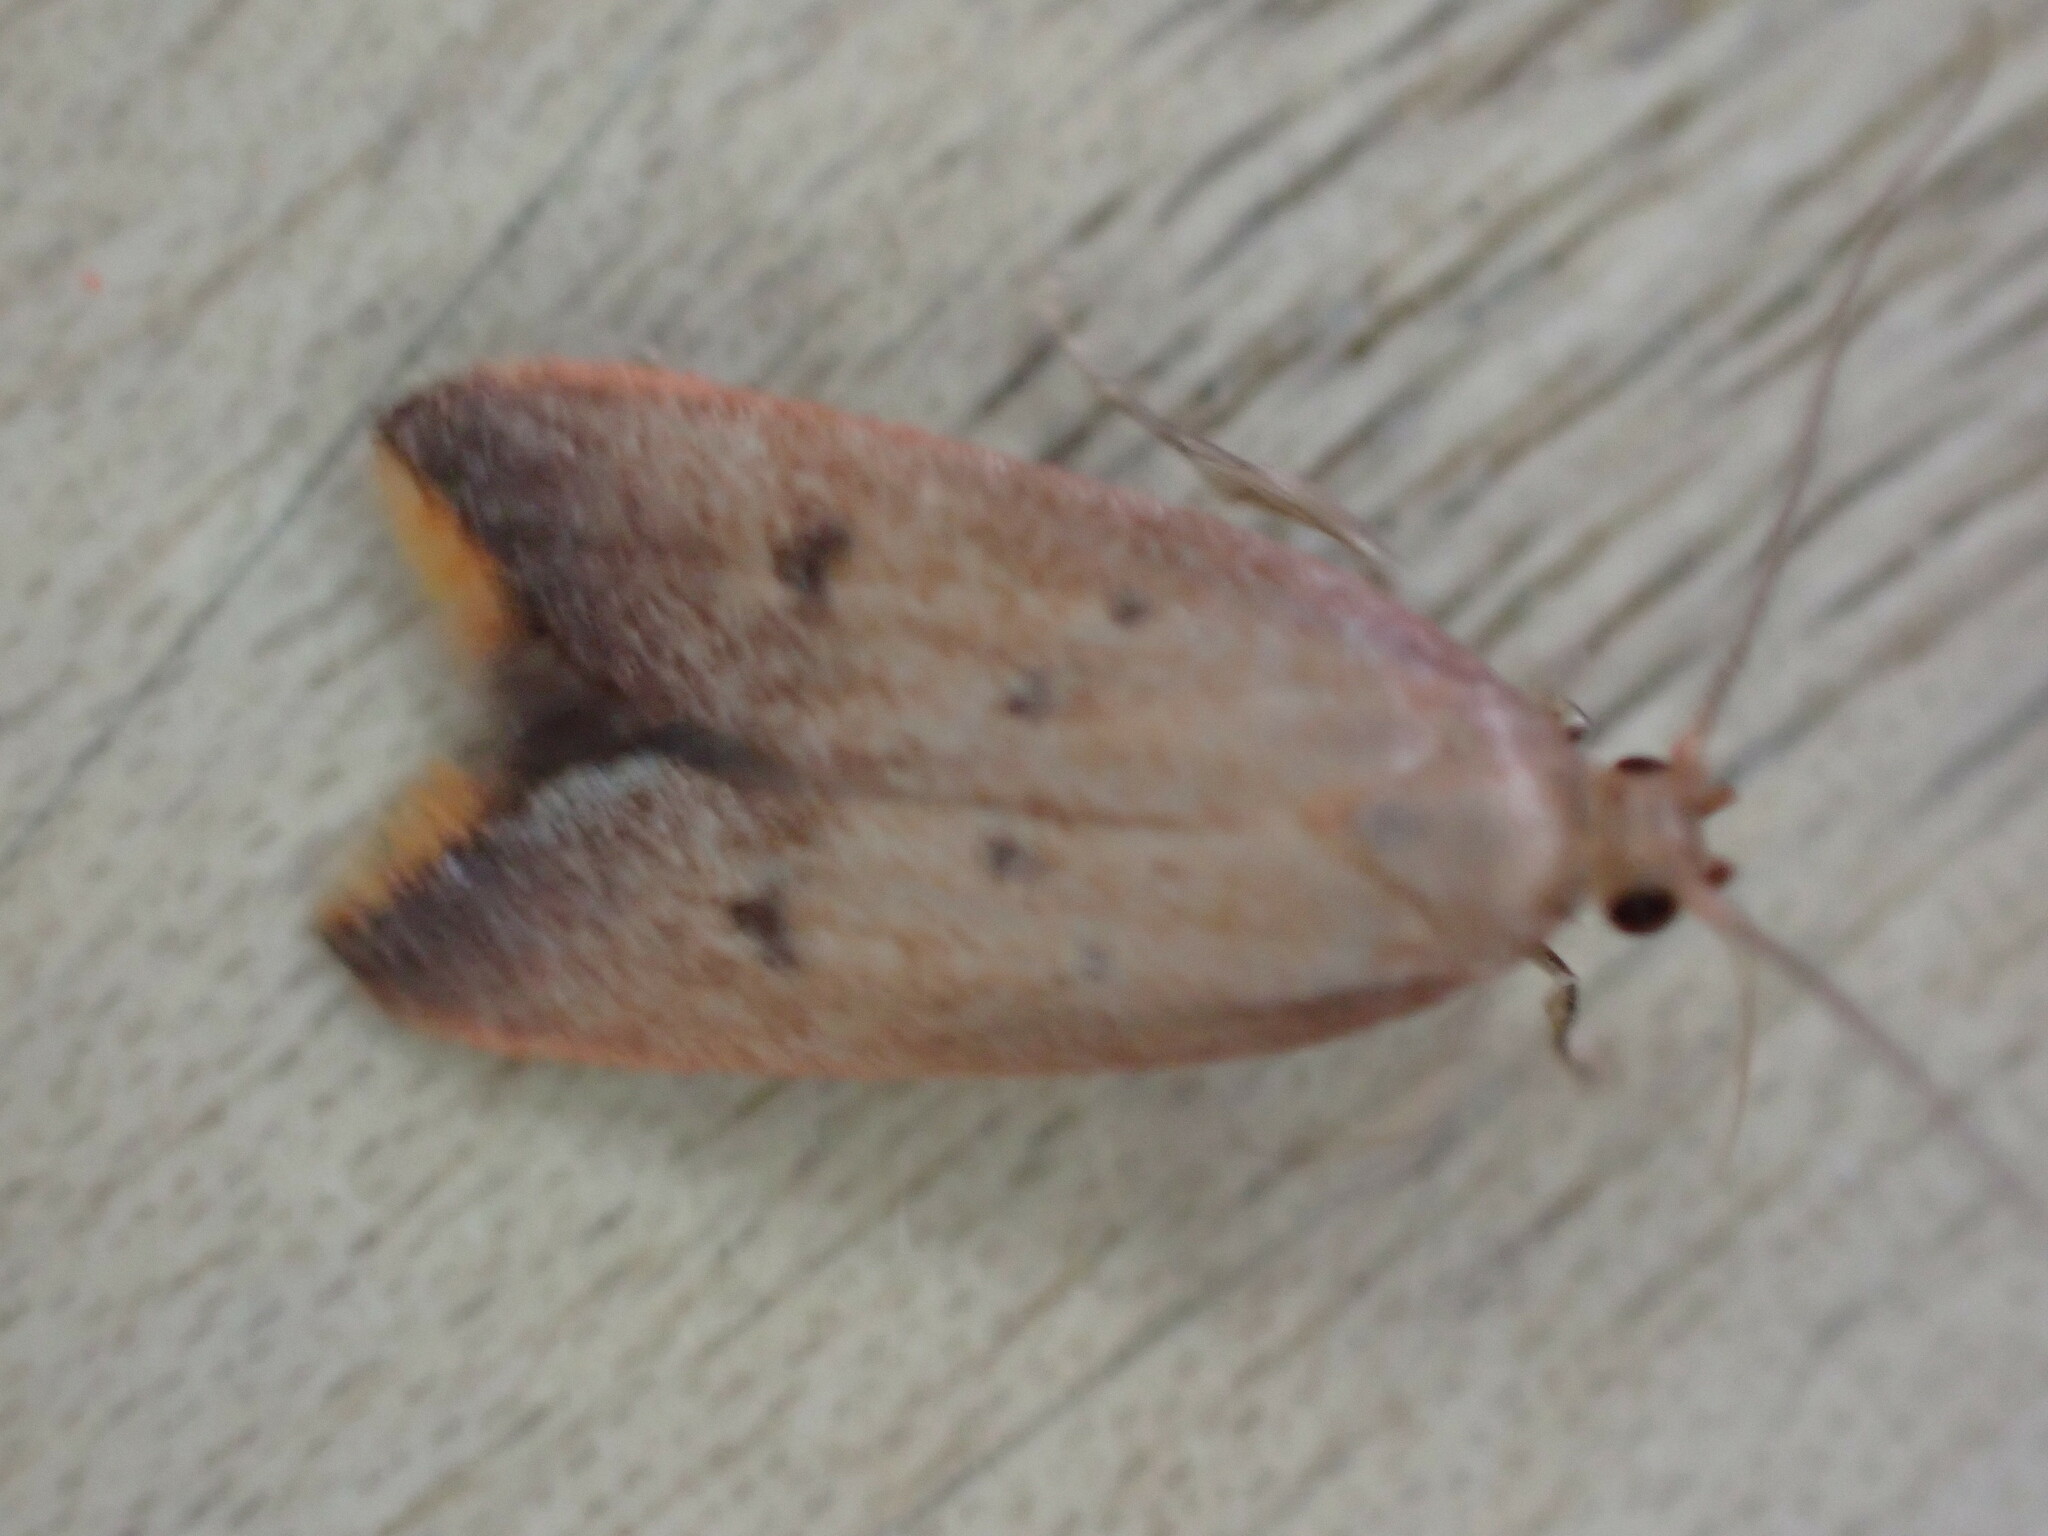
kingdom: Animalia
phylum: Arthropoda
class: Insecta
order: Lepidoptera
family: Oecophoridae
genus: Tachystola
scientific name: Tachystola acroxantha
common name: Ruddy streak
